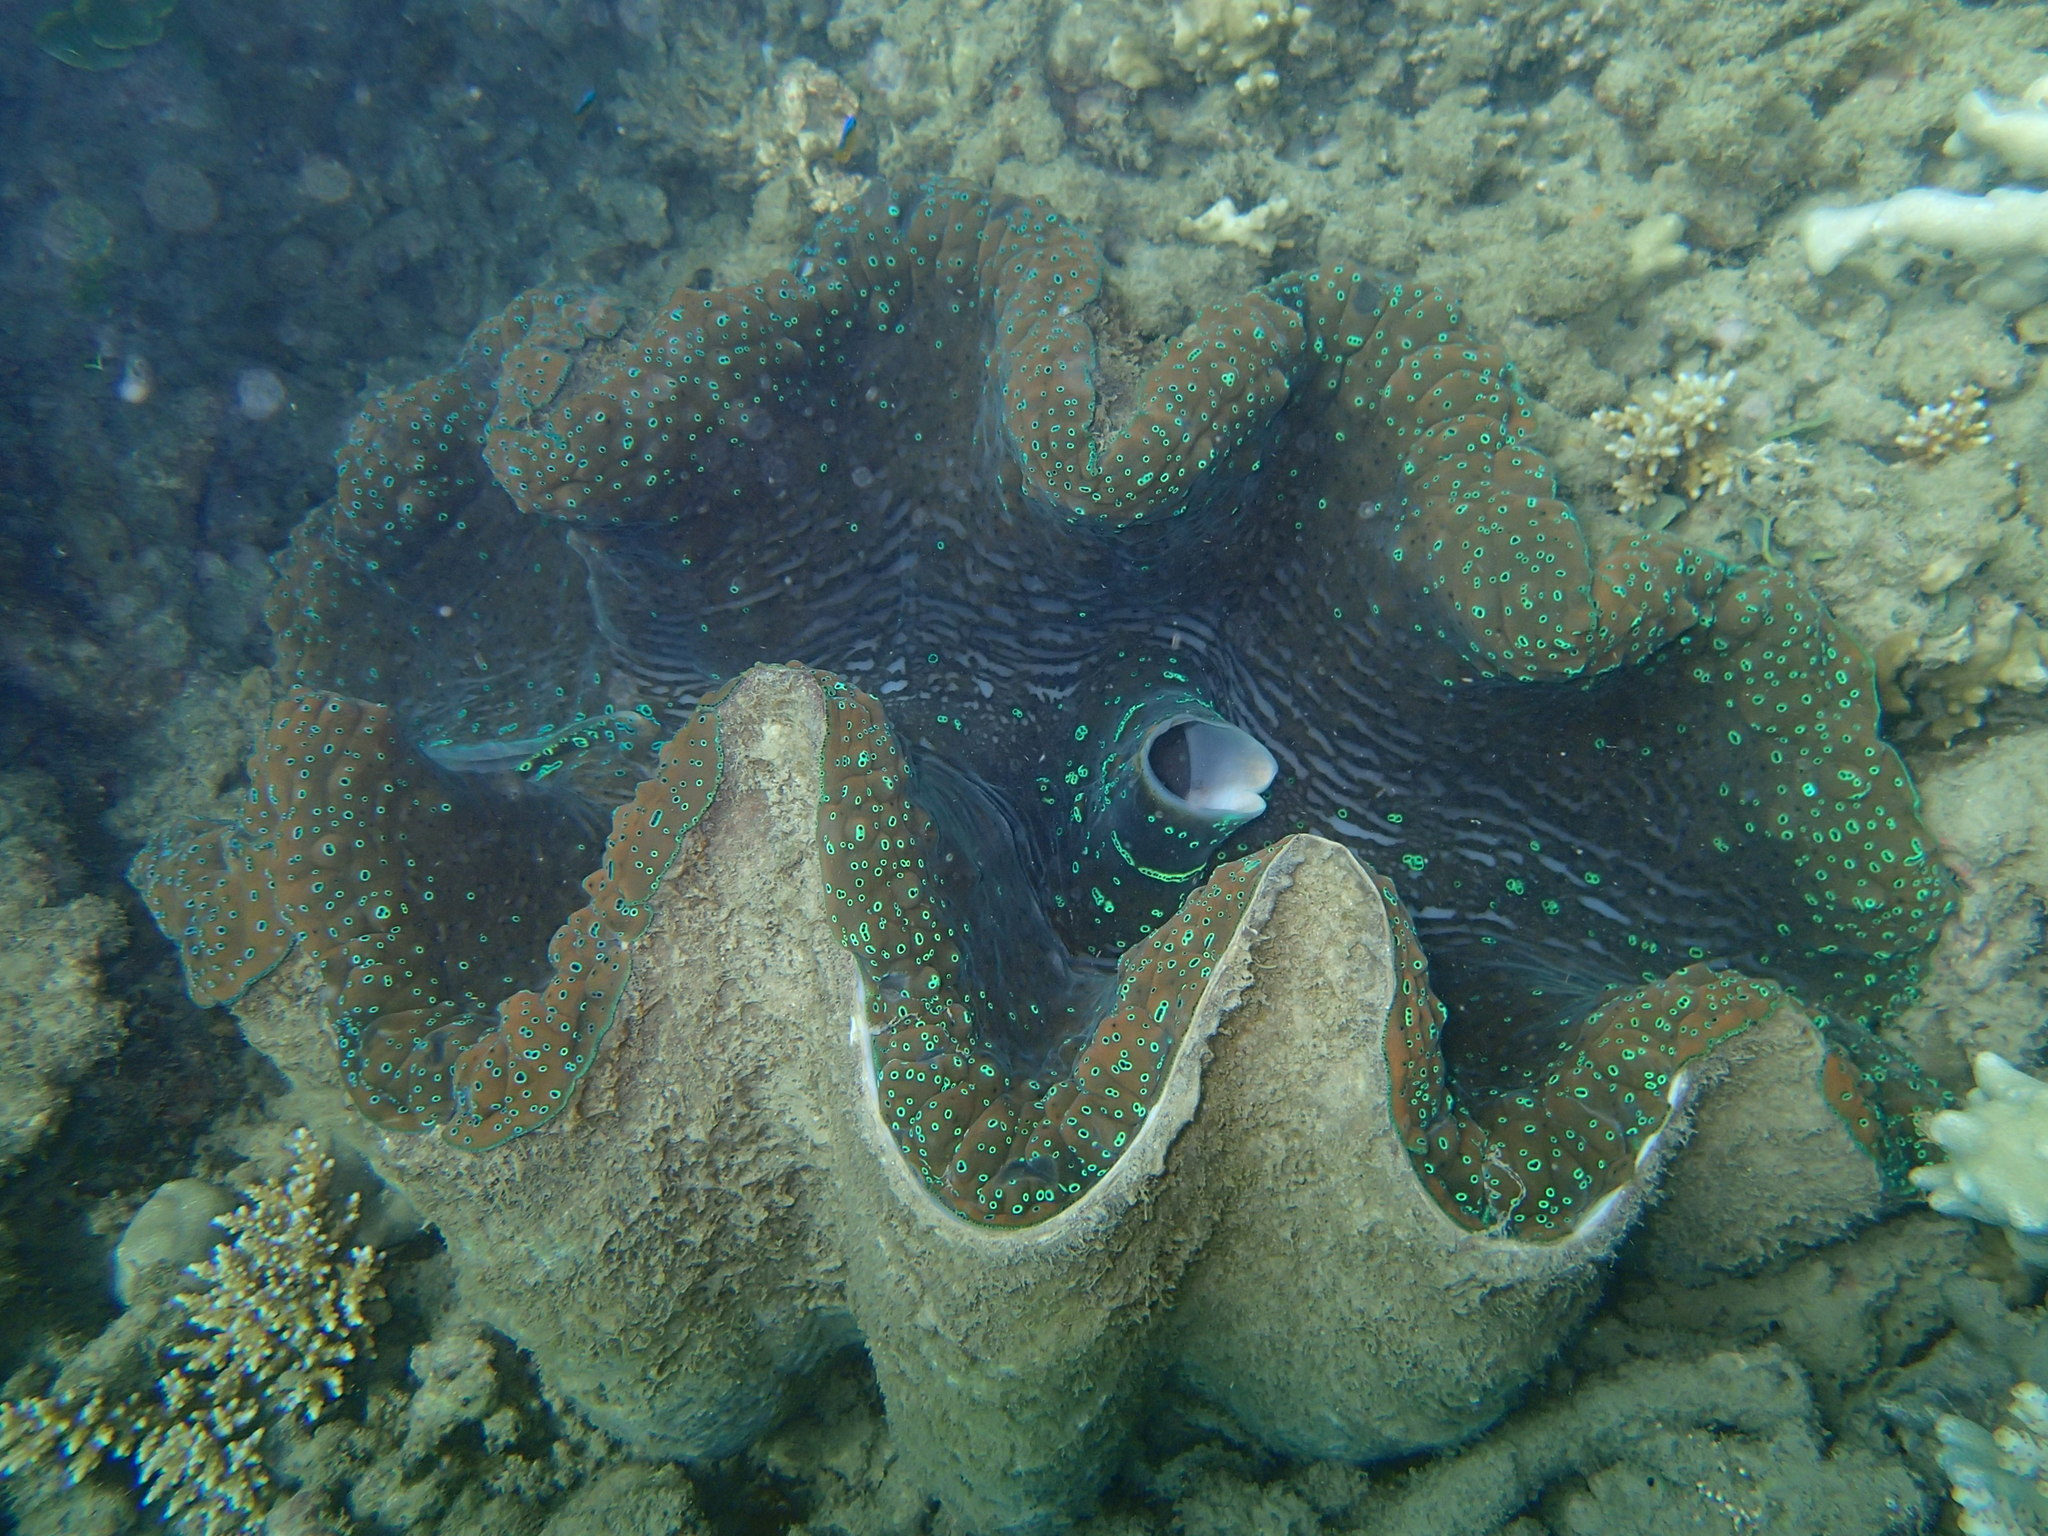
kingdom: Animalia
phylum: Mollusca
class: Bivalvia
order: Cardiida
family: Cardiidae
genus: Tridacna
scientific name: Tridacna gigas
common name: Giant clam
